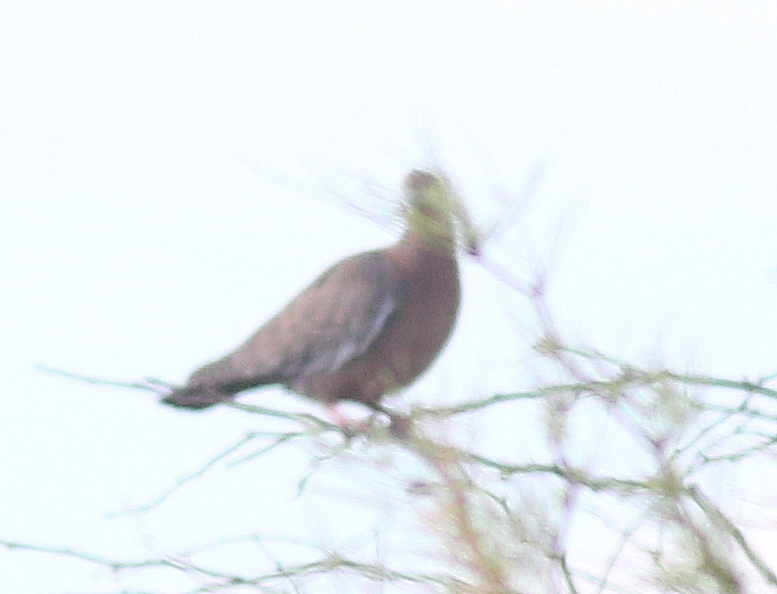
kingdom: Animalia
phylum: Chordata
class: Aves
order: Columbiformes
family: Columbidae
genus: Patagioenas
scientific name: Patagioenas picazuro
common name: Picazuro pigeon
